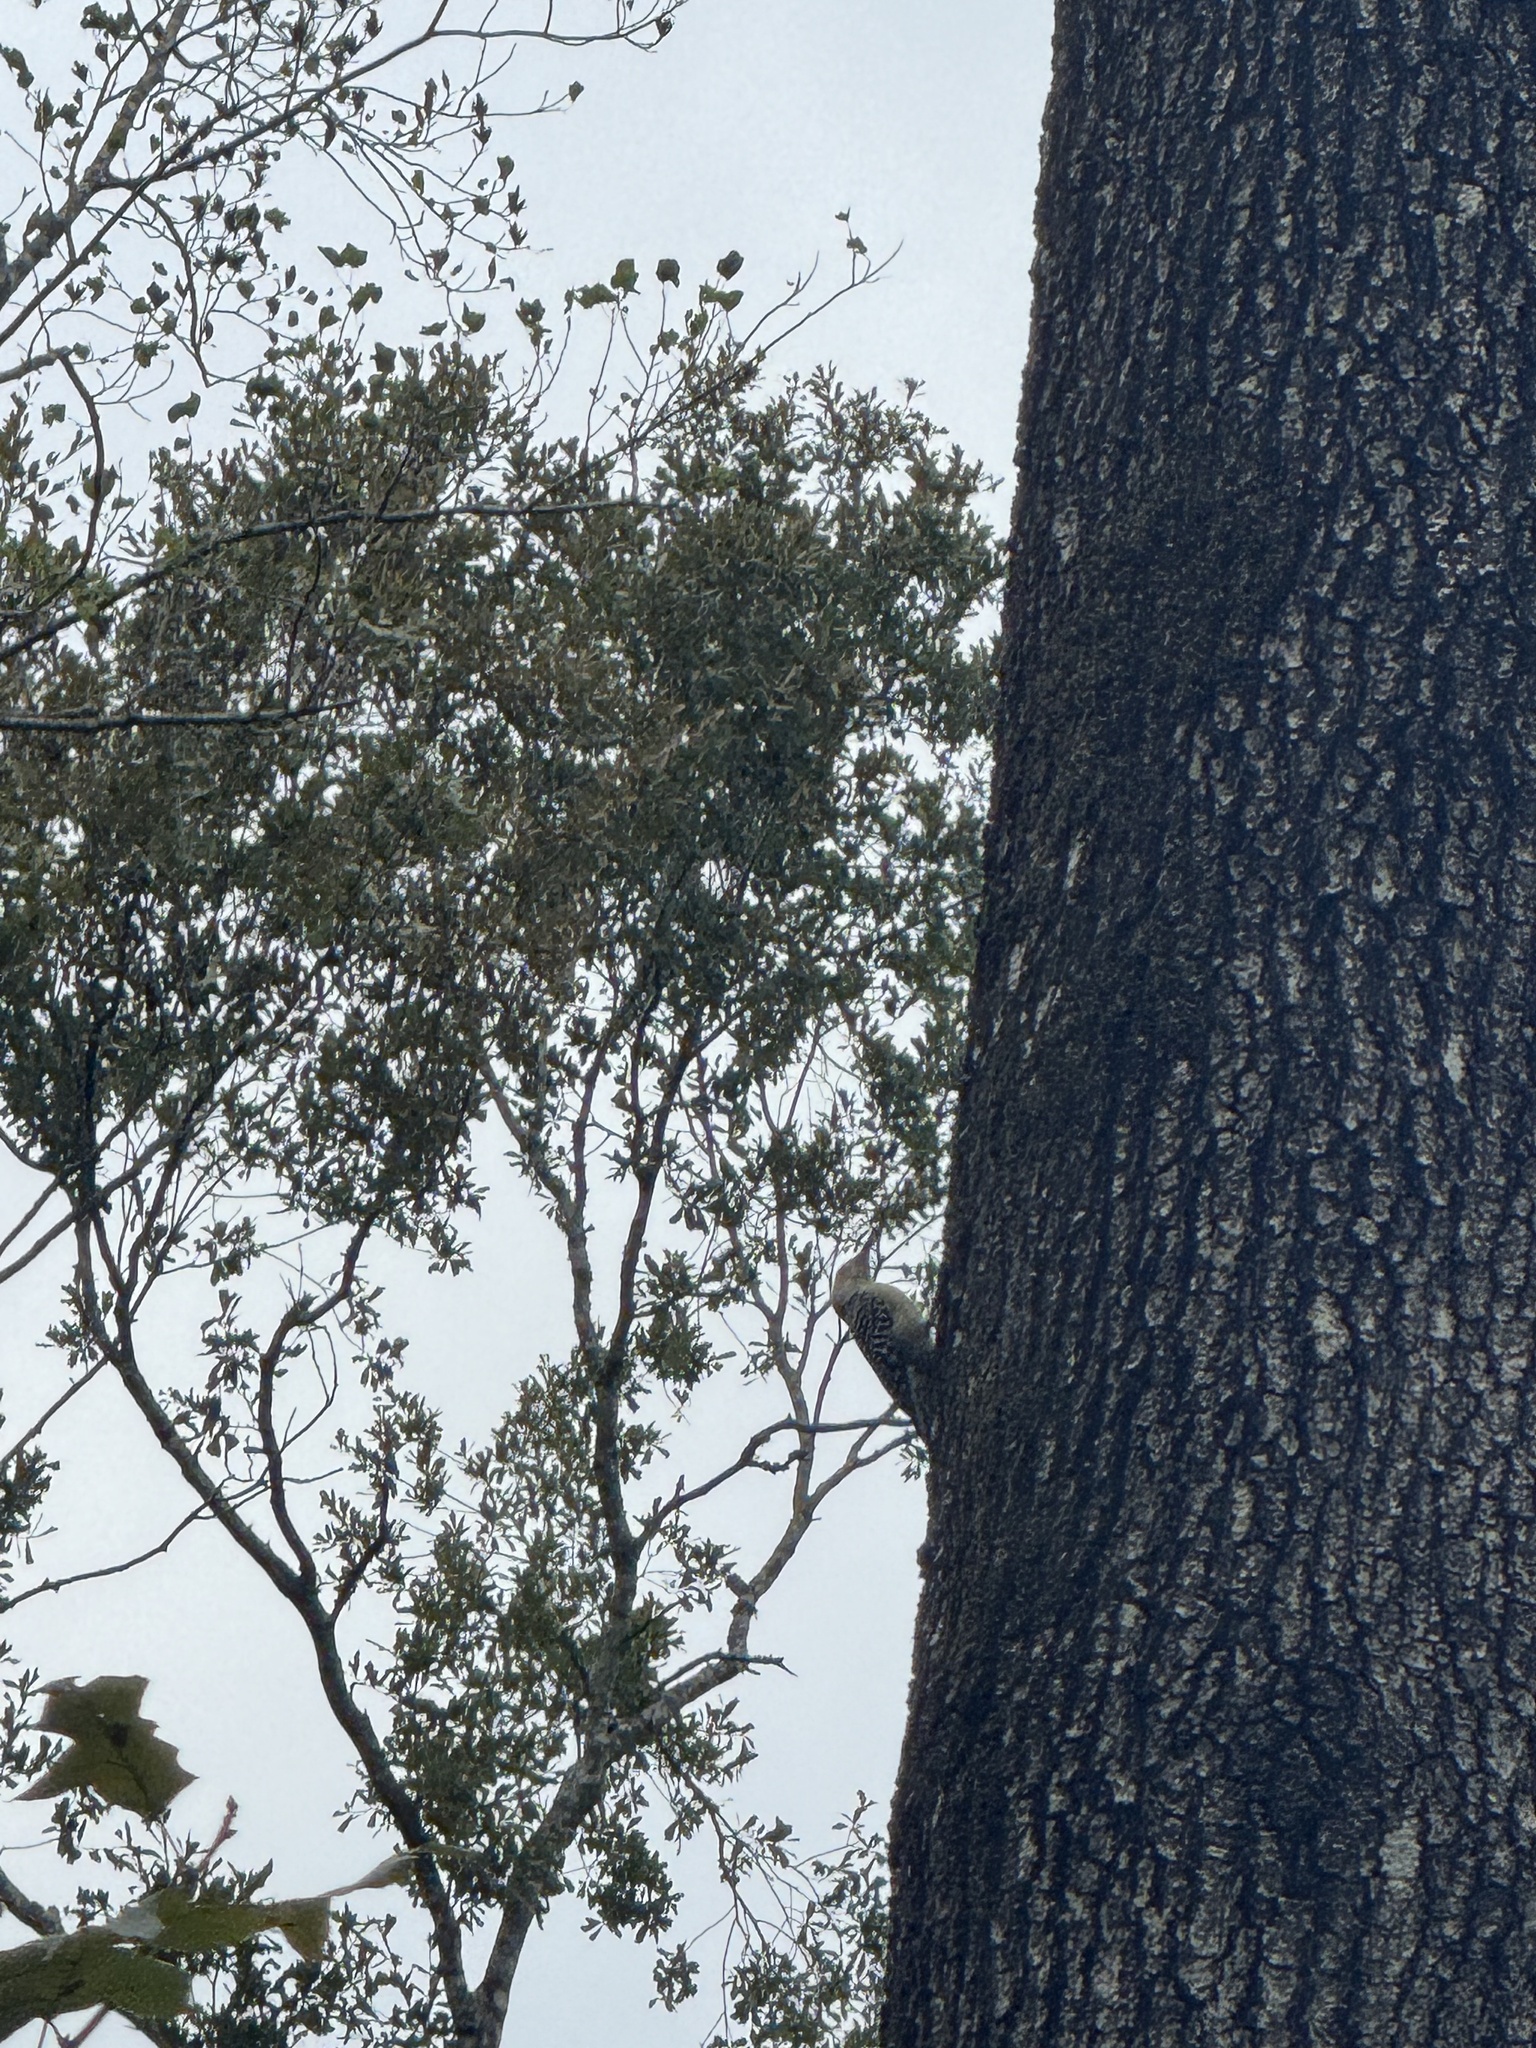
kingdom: Animalia
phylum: Chordata
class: Aves
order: Piciformes
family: Picidae
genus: Melanerpes
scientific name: Melanerpes carolinus
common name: Red-bellied woodpecker
